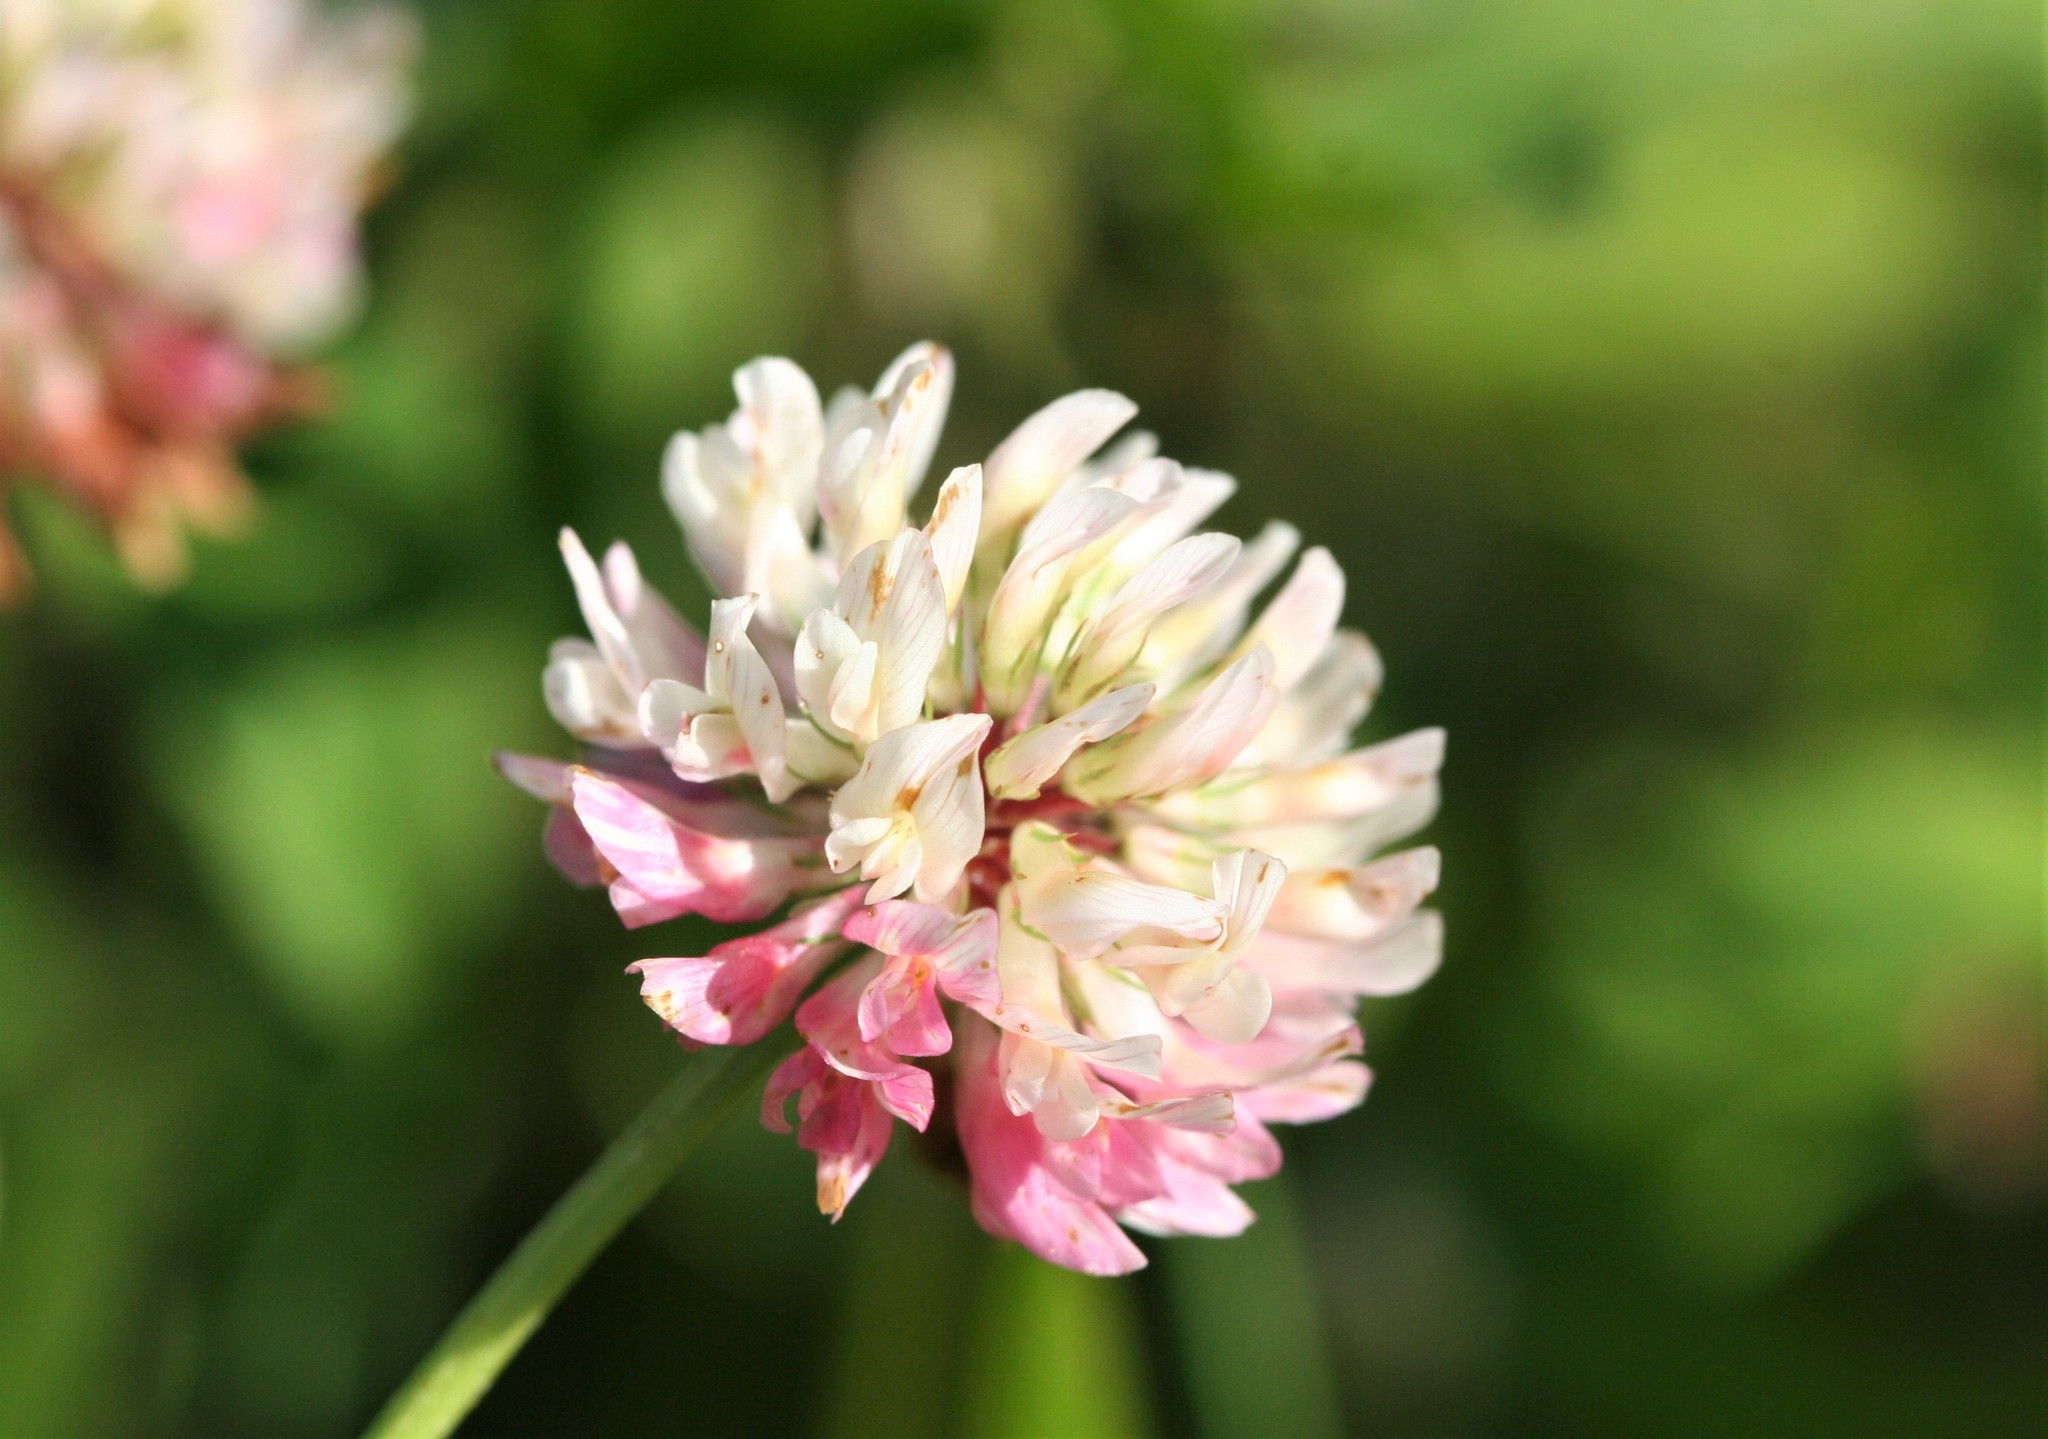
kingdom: Plantae
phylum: Tracheophyta
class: Magnoliopsida
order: Fabales
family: Fabaceae
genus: Trifolium
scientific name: Trifolium hybridum
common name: Alsike clover
